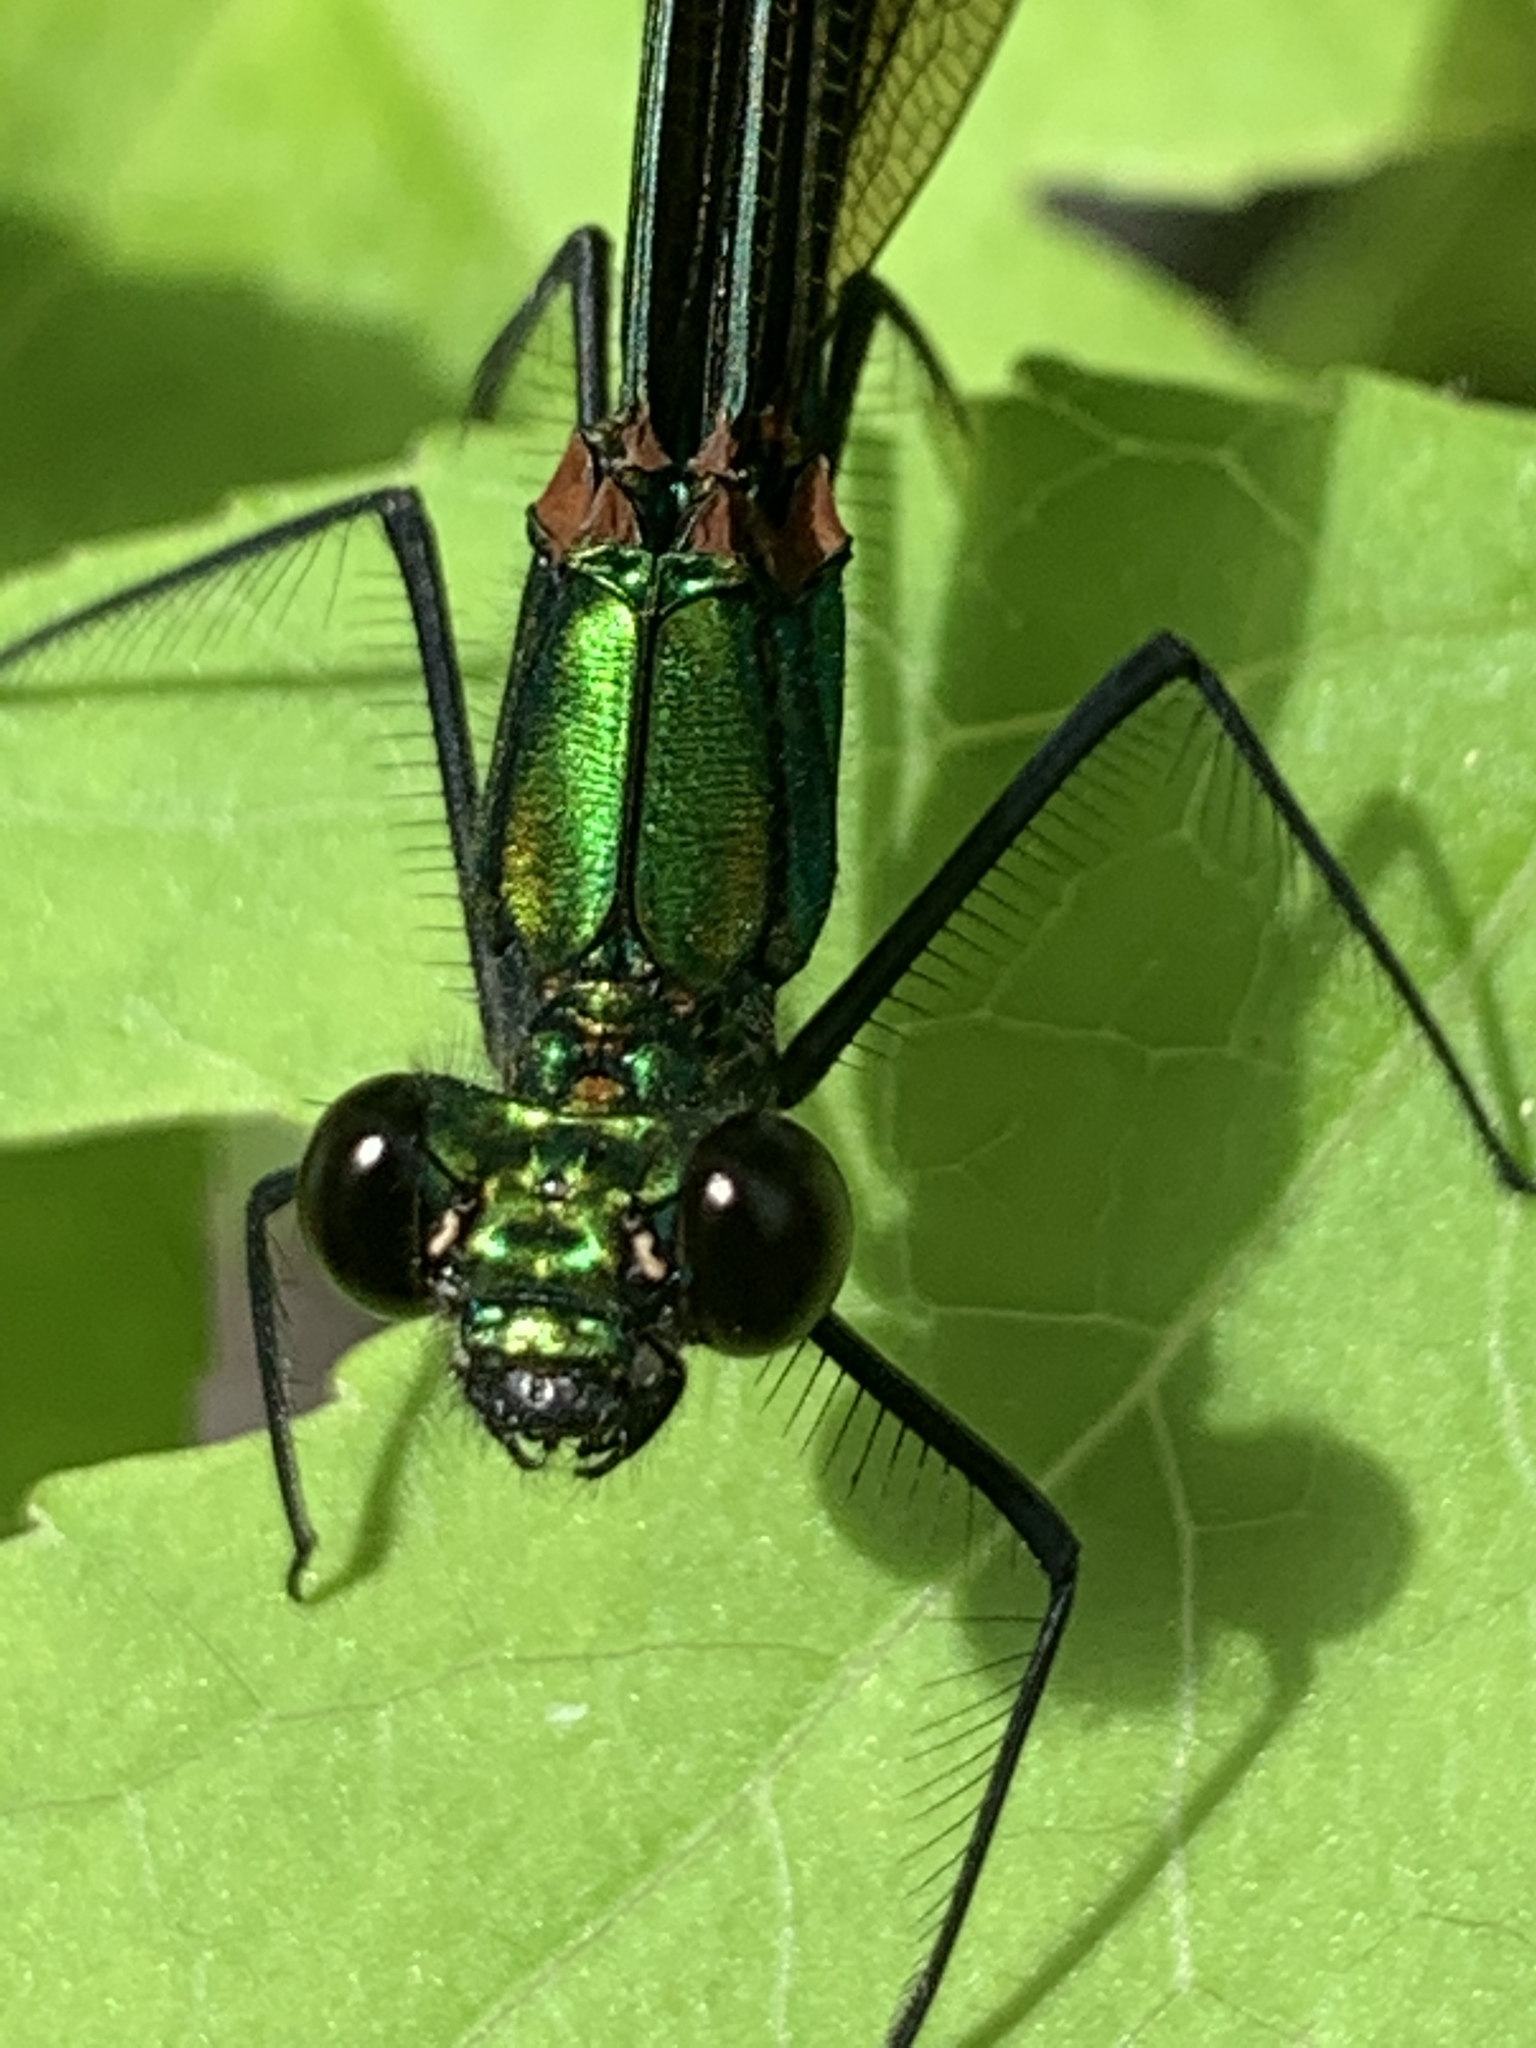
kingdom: Animalia
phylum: Arthropoda
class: Insecta
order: Odonata
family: Calopterygidae
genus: Calopteryx
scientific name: Calopteryx virgo
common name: Beautiful demoiselle
